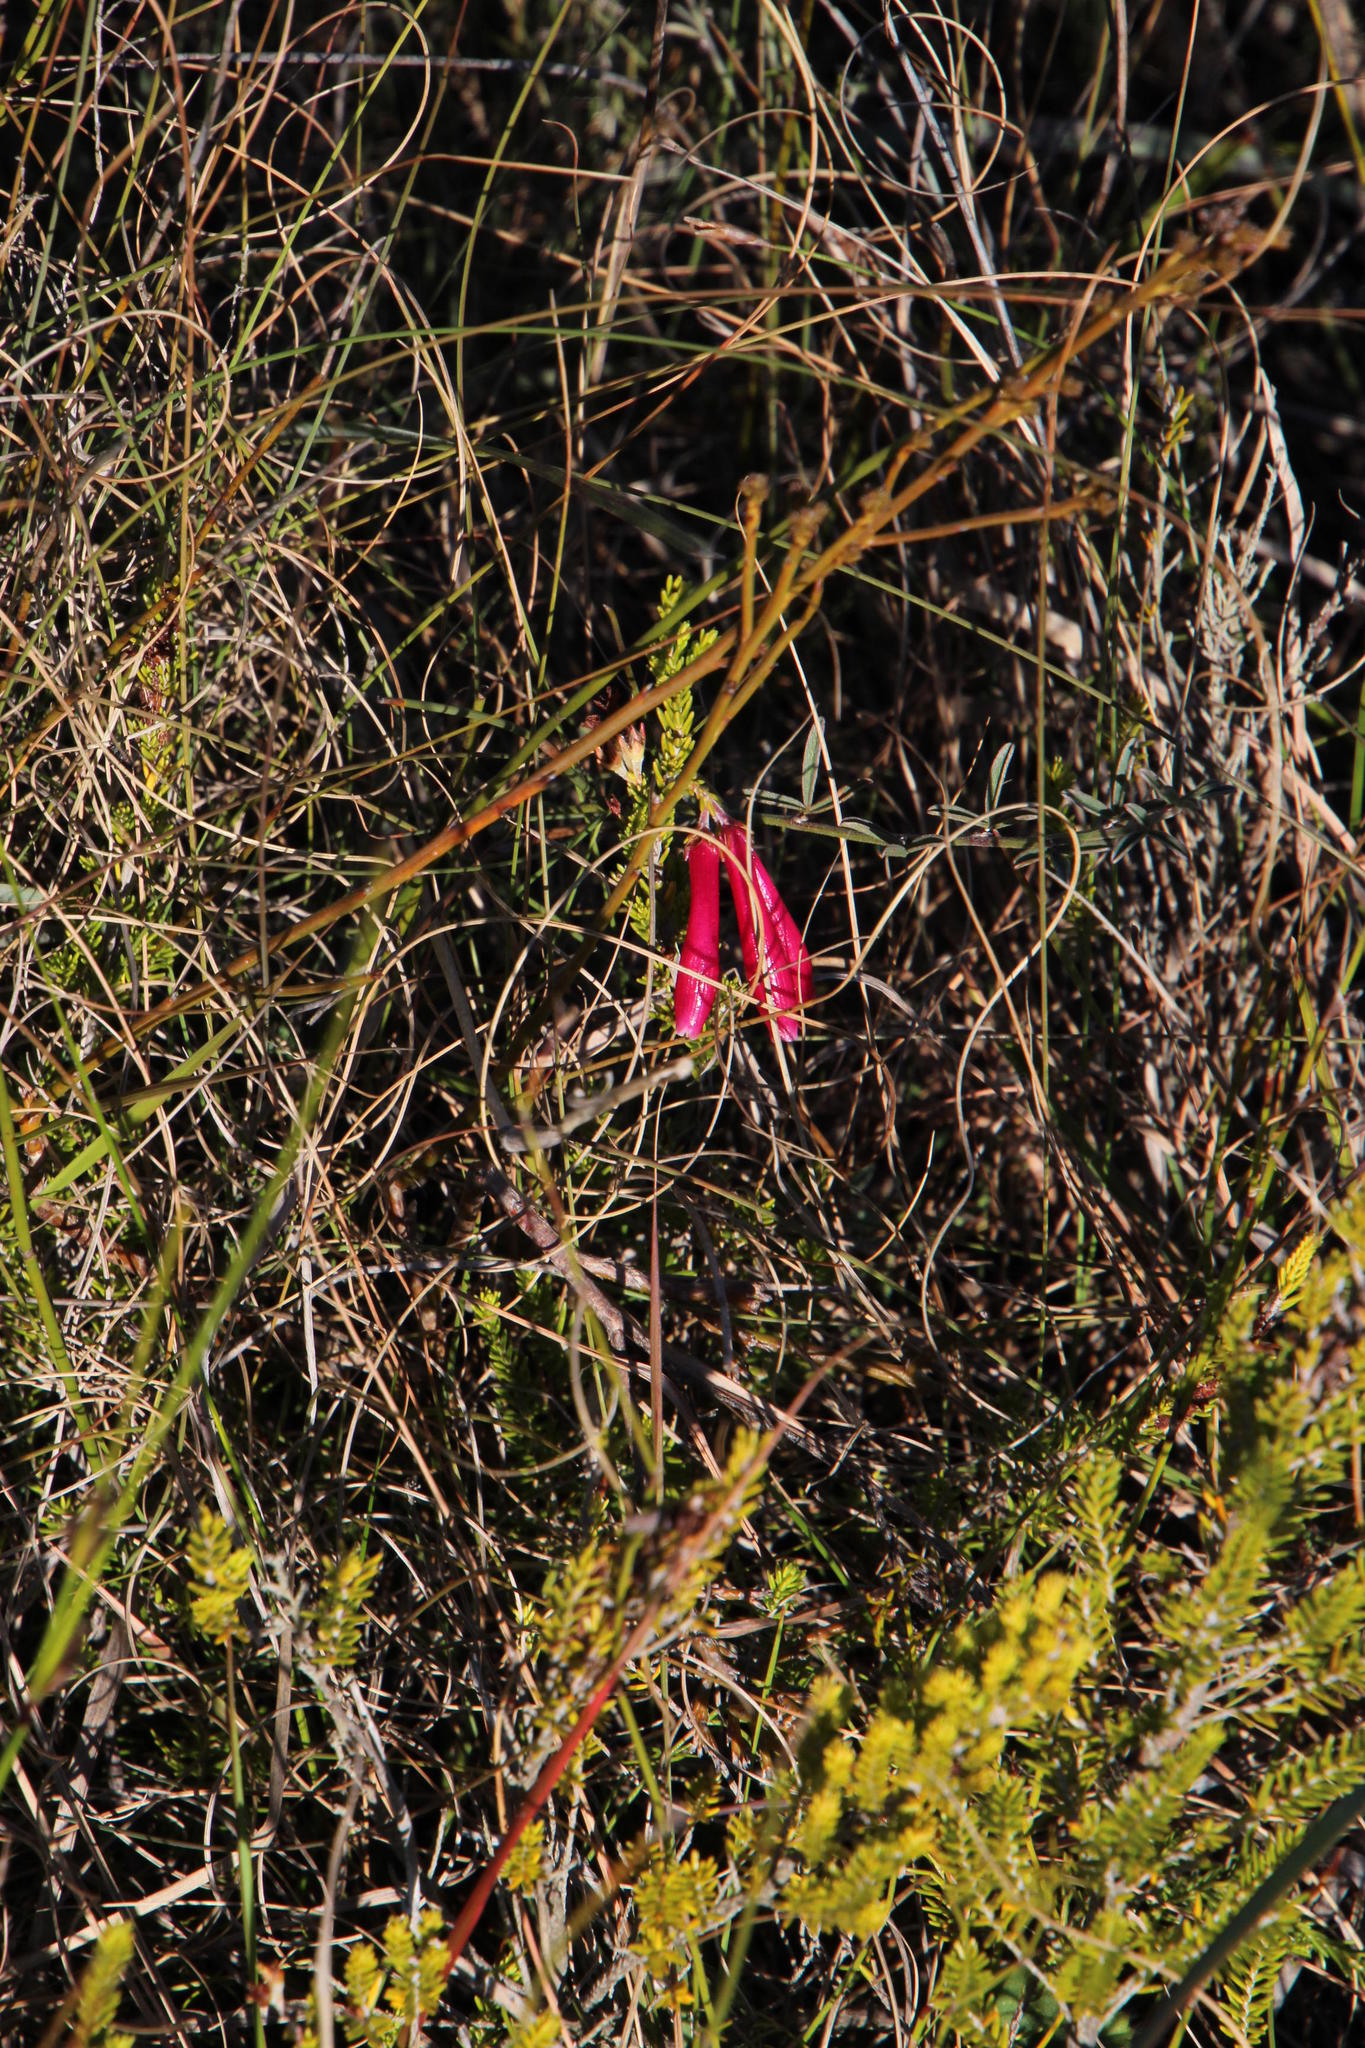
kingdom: Plantae
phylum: Tracheophyta
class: Magnoliopsida
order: Ericales
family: Ericaceae
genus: Erica
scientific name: Erica discolor
